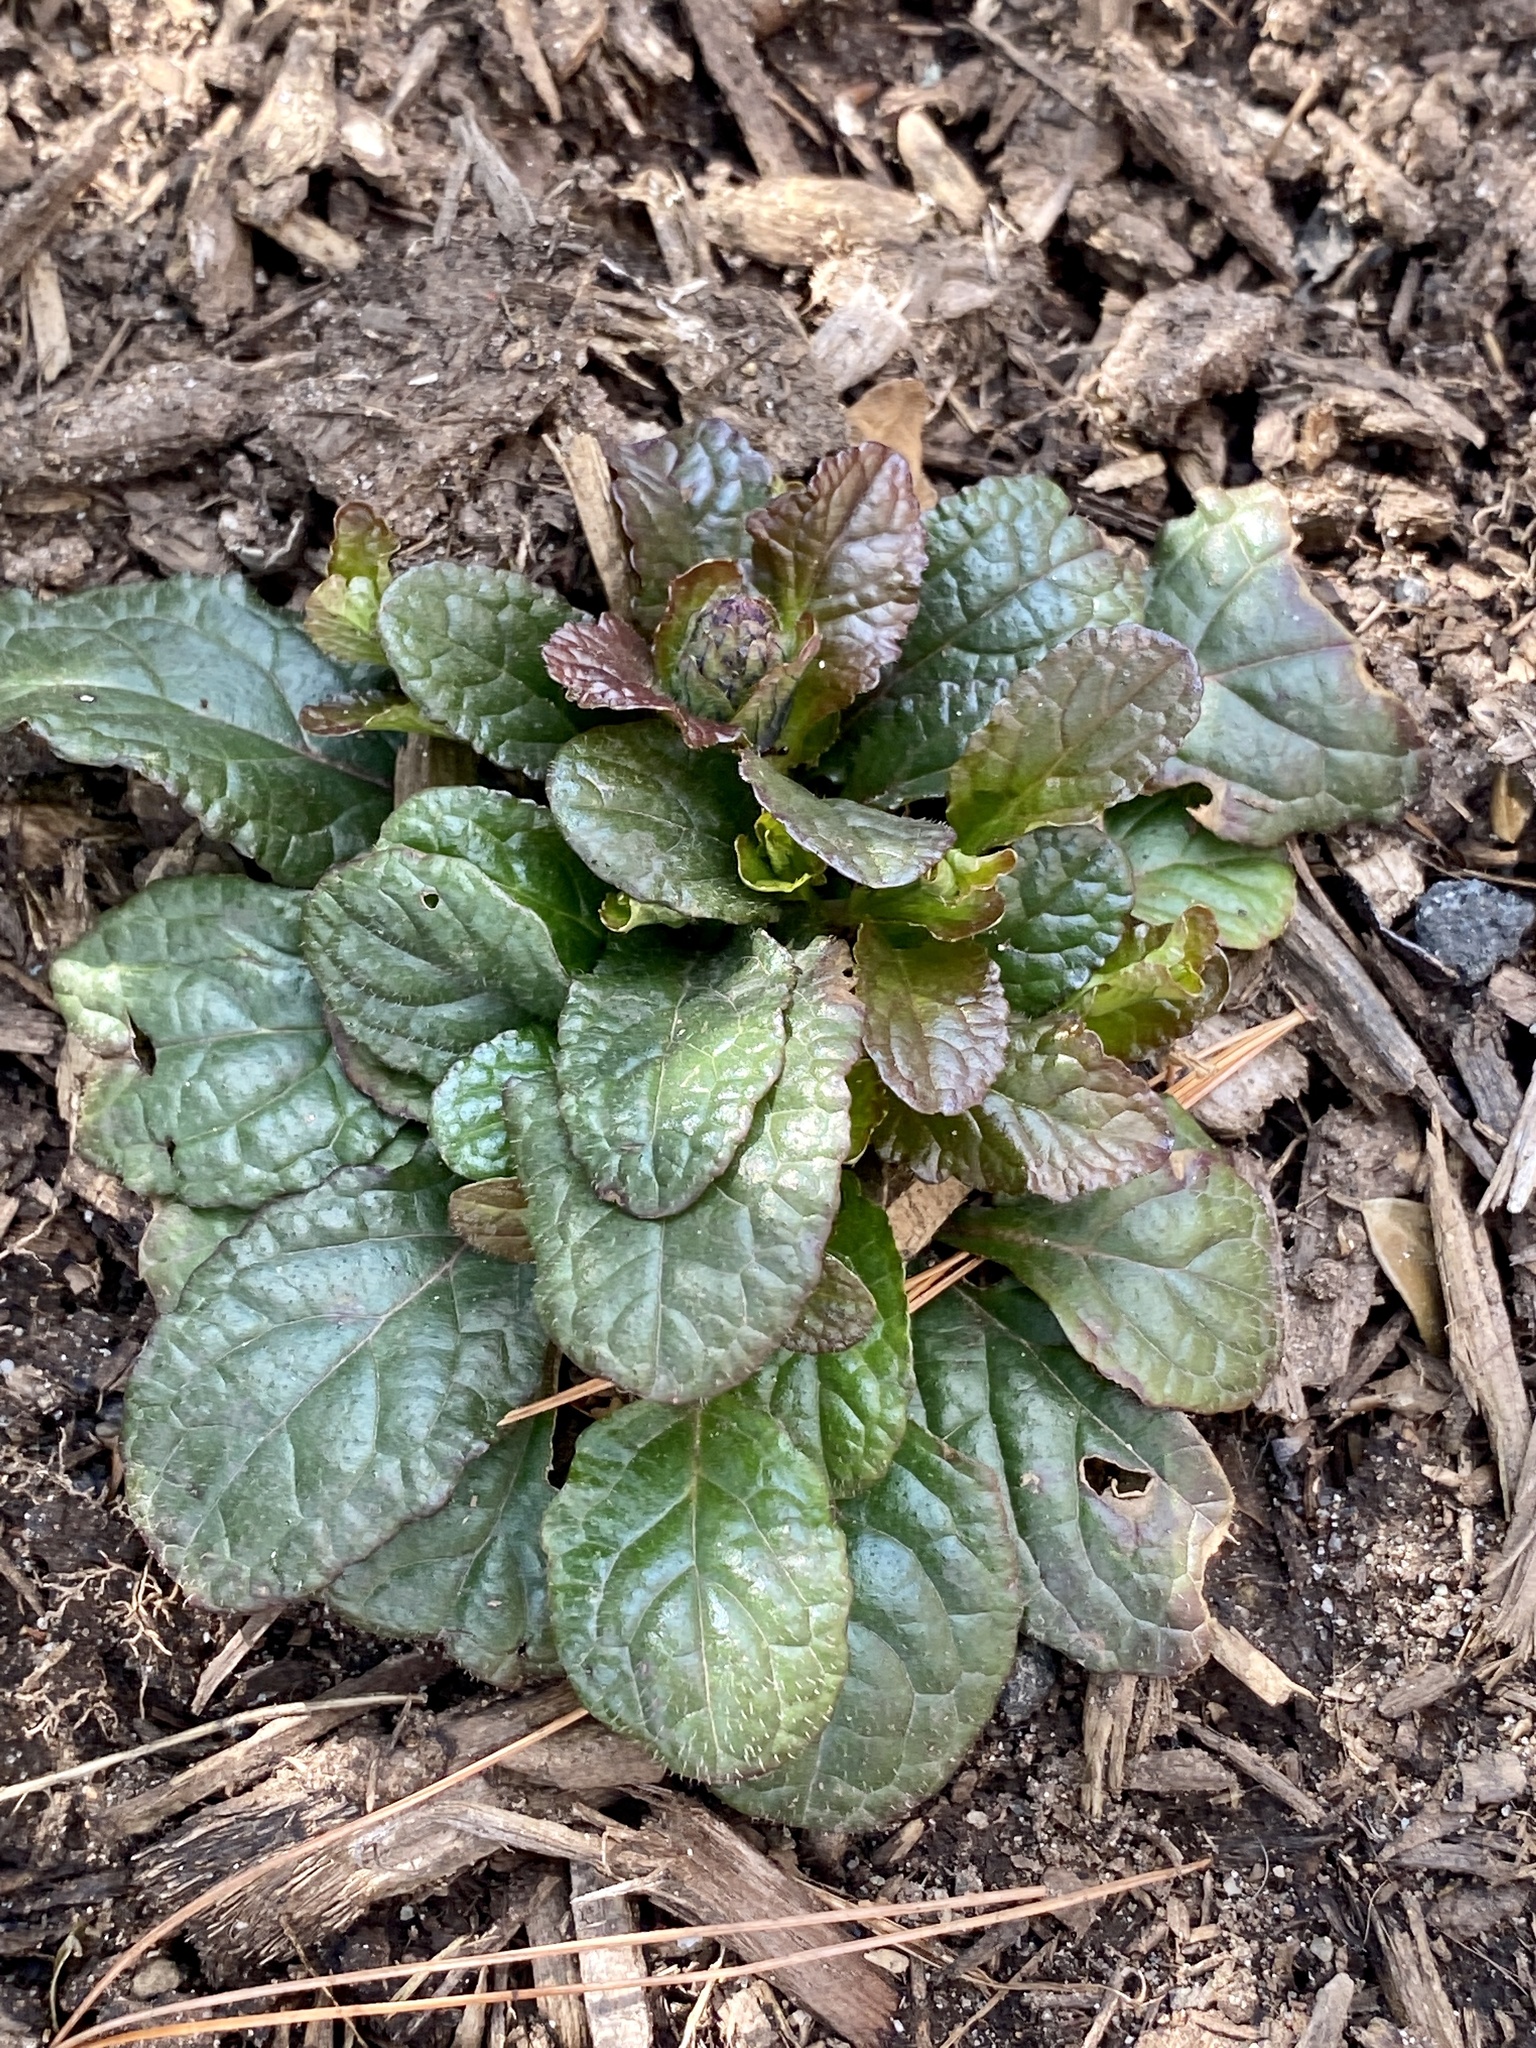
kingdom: Plantae
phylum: Tracheophyta
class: Magnoliopsida
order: Lamiales
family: Lamiaceae
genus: Ajuga
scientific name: Ajuga reptans
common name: Bugle
